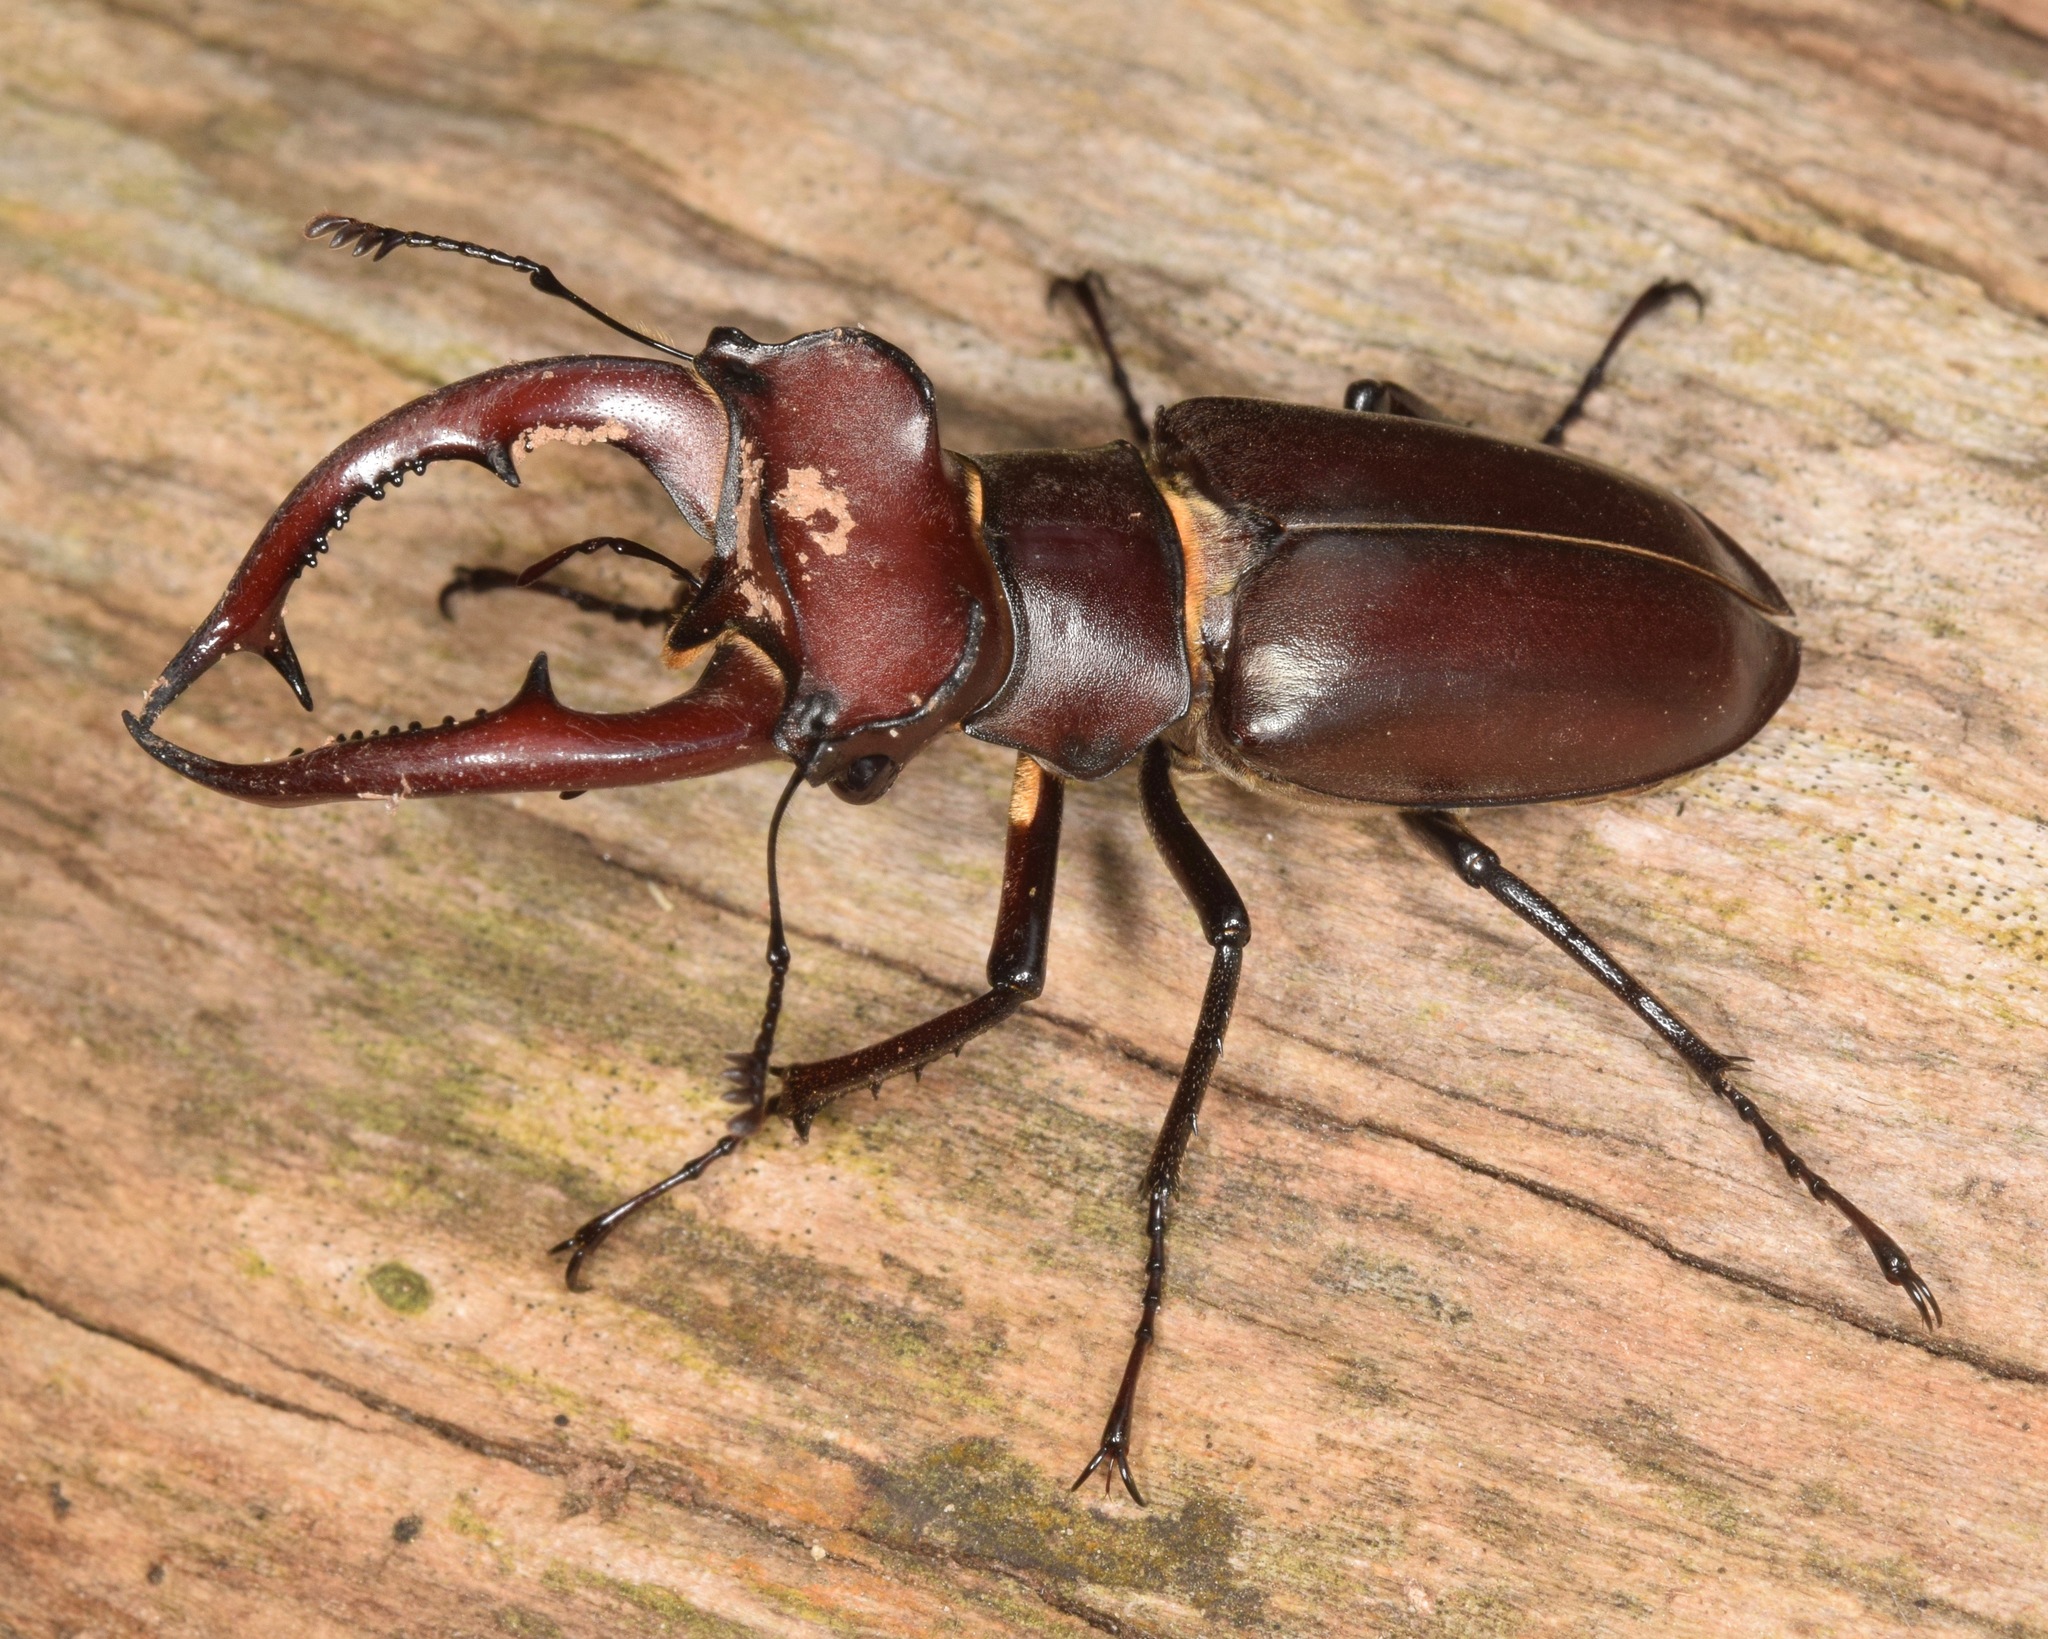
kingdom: Animalia
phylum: Arthropoda
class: Insecta
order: Coleoptera
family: Lucanidae
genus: Lucanus
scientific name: Lucanus elaphus
